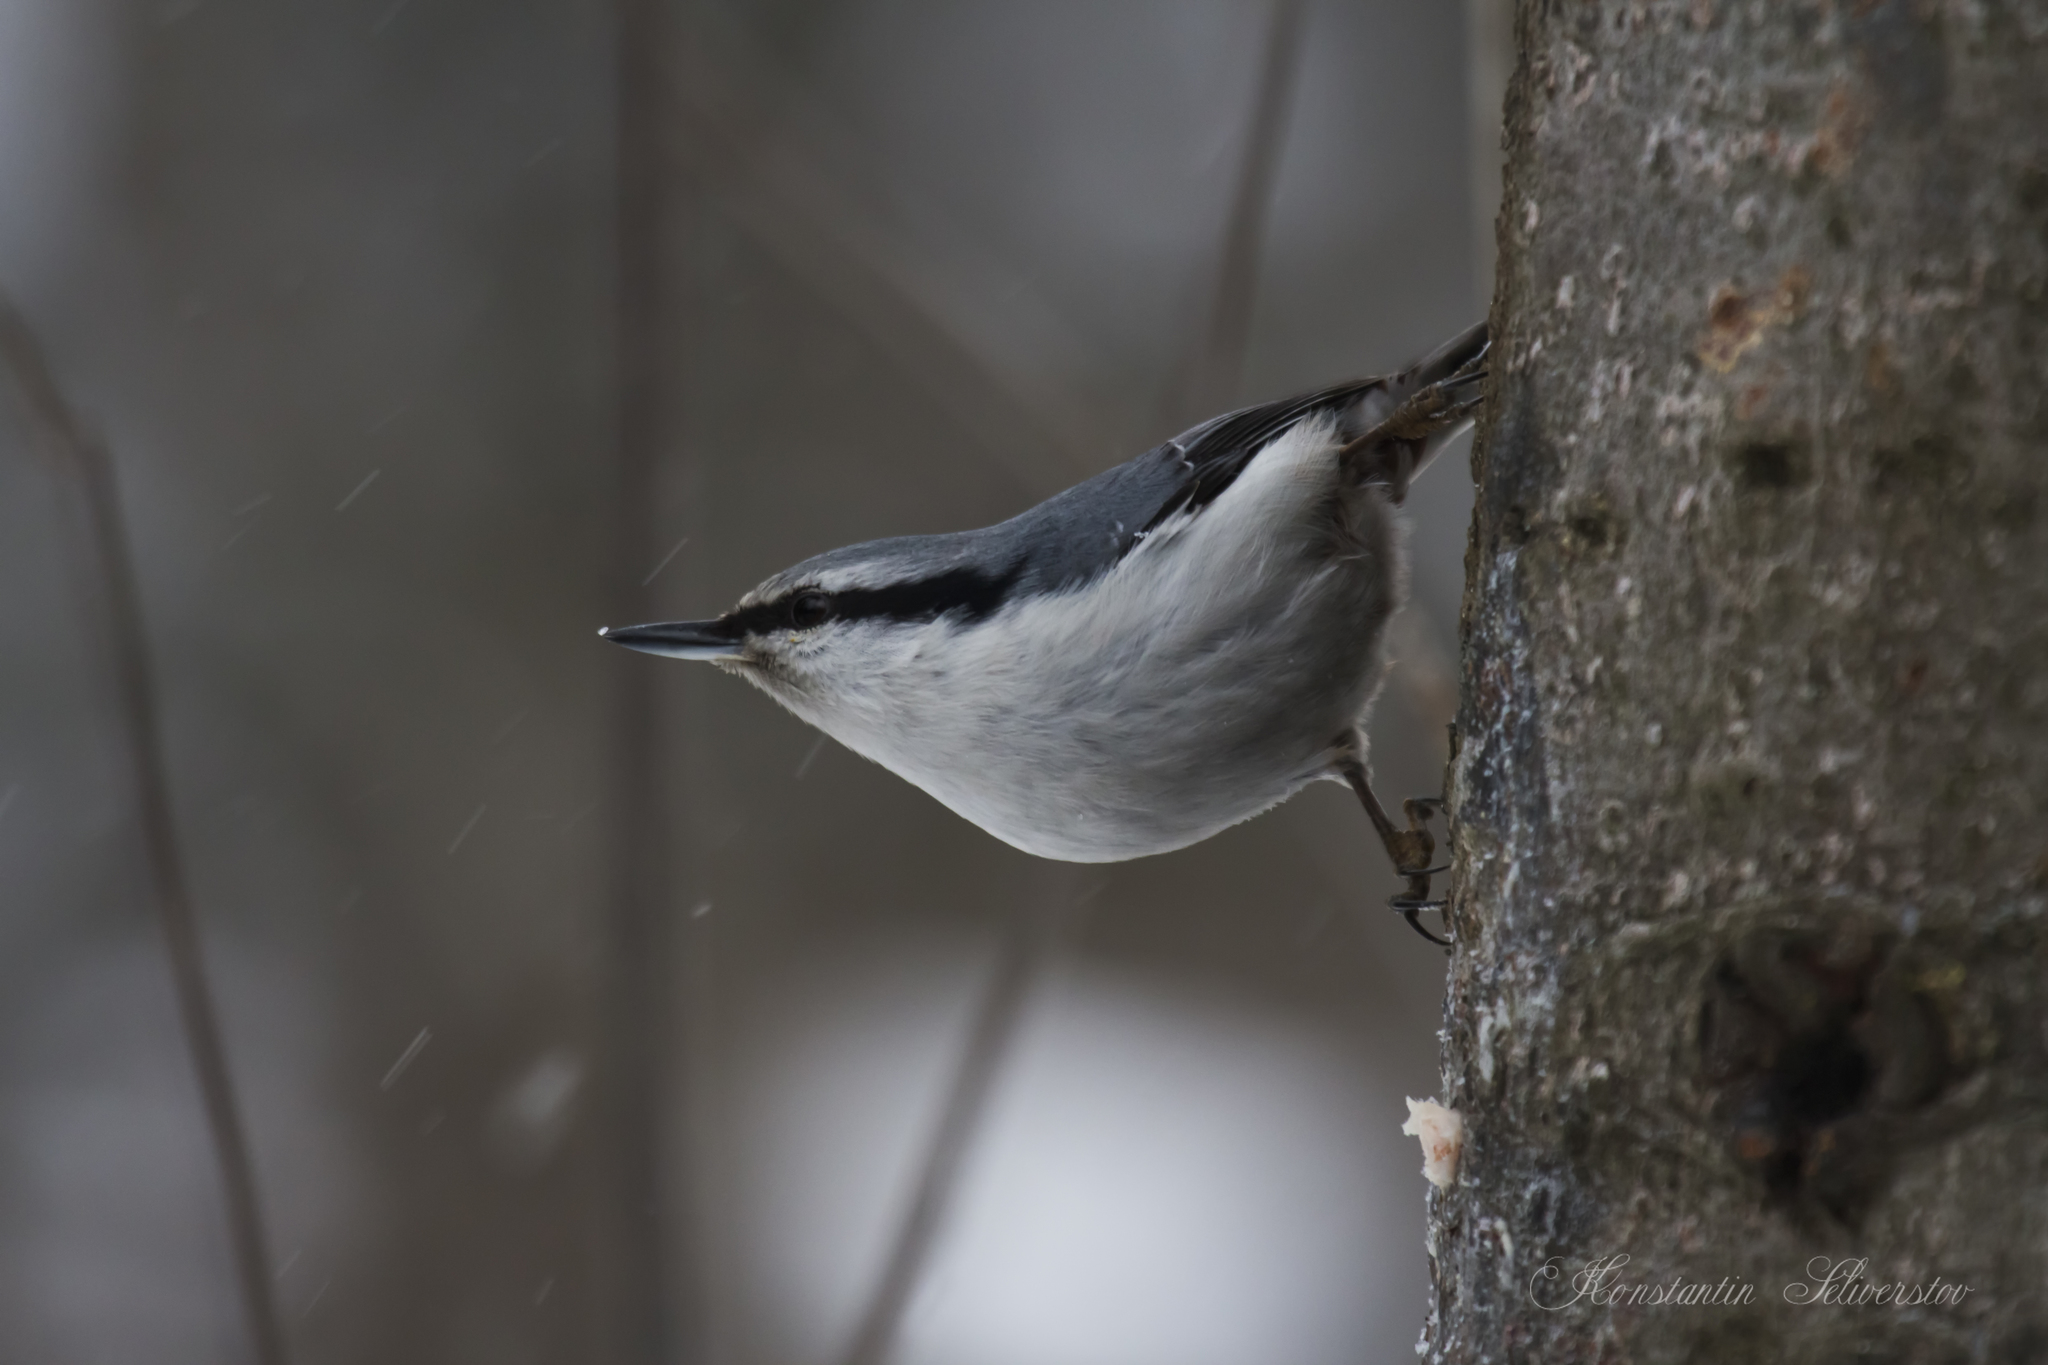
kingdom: Animalia
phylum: Chordata
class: Aves
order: Passeriformes
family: Sittidae
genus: Sitta
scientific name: Sitta europaea
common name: Eurasian nuthatch
